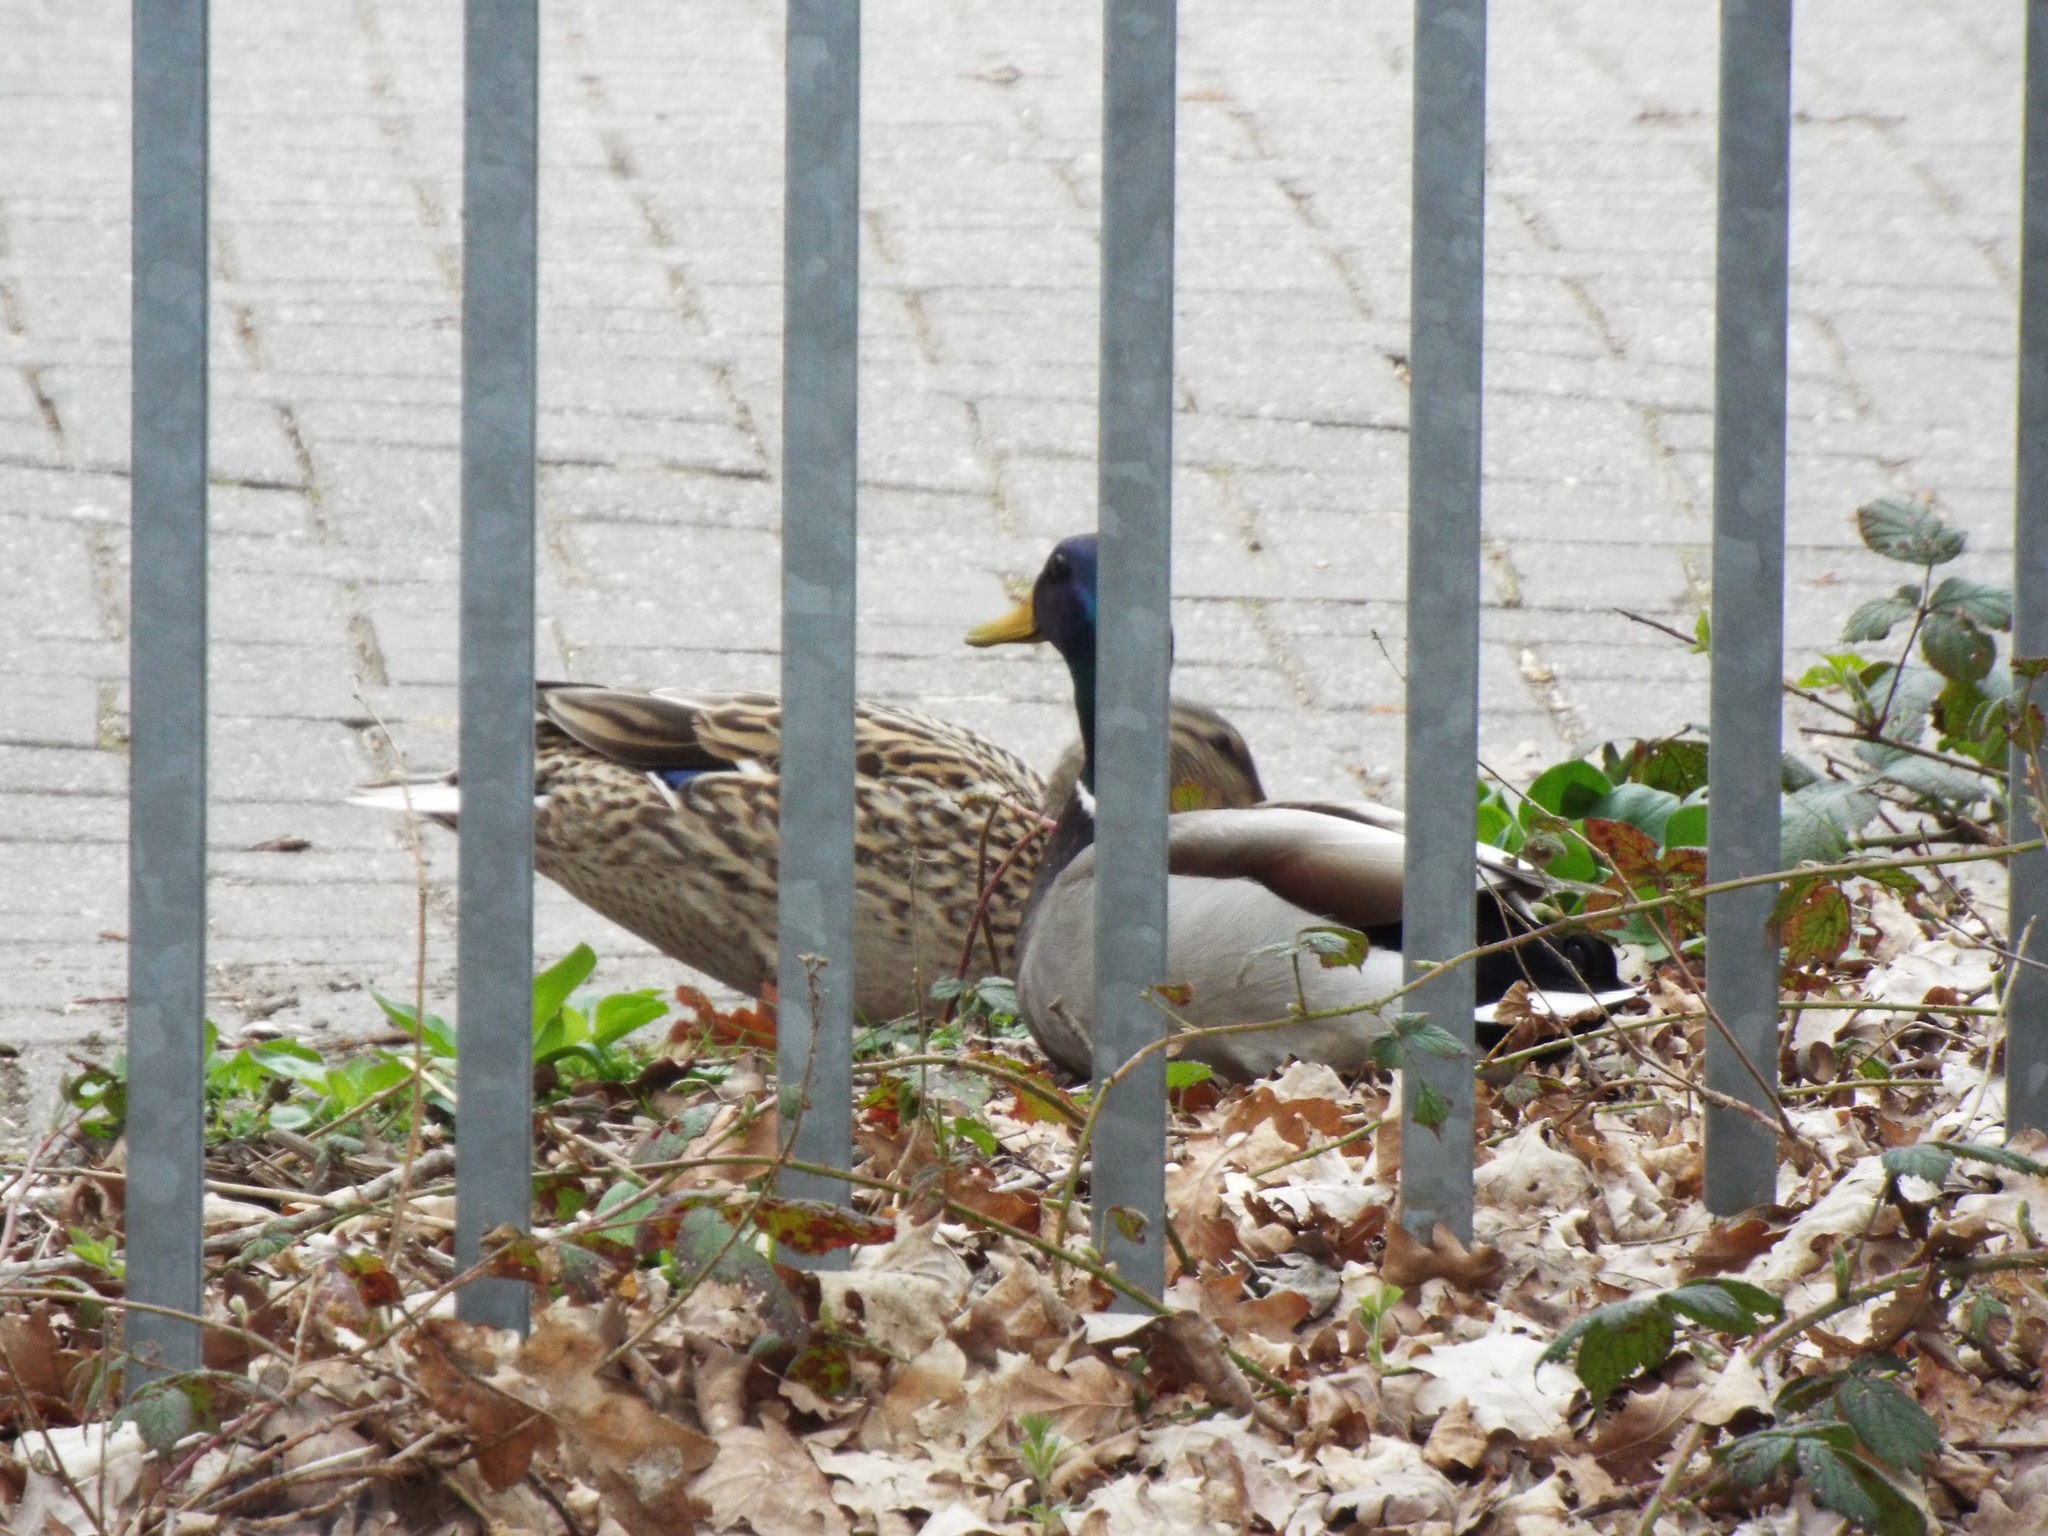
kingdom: Animalia
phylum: Chordata
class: Aves
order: Anseriformes
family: Anatidae
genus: Anas
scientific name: Anas platyrhynchos
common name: Mallard
